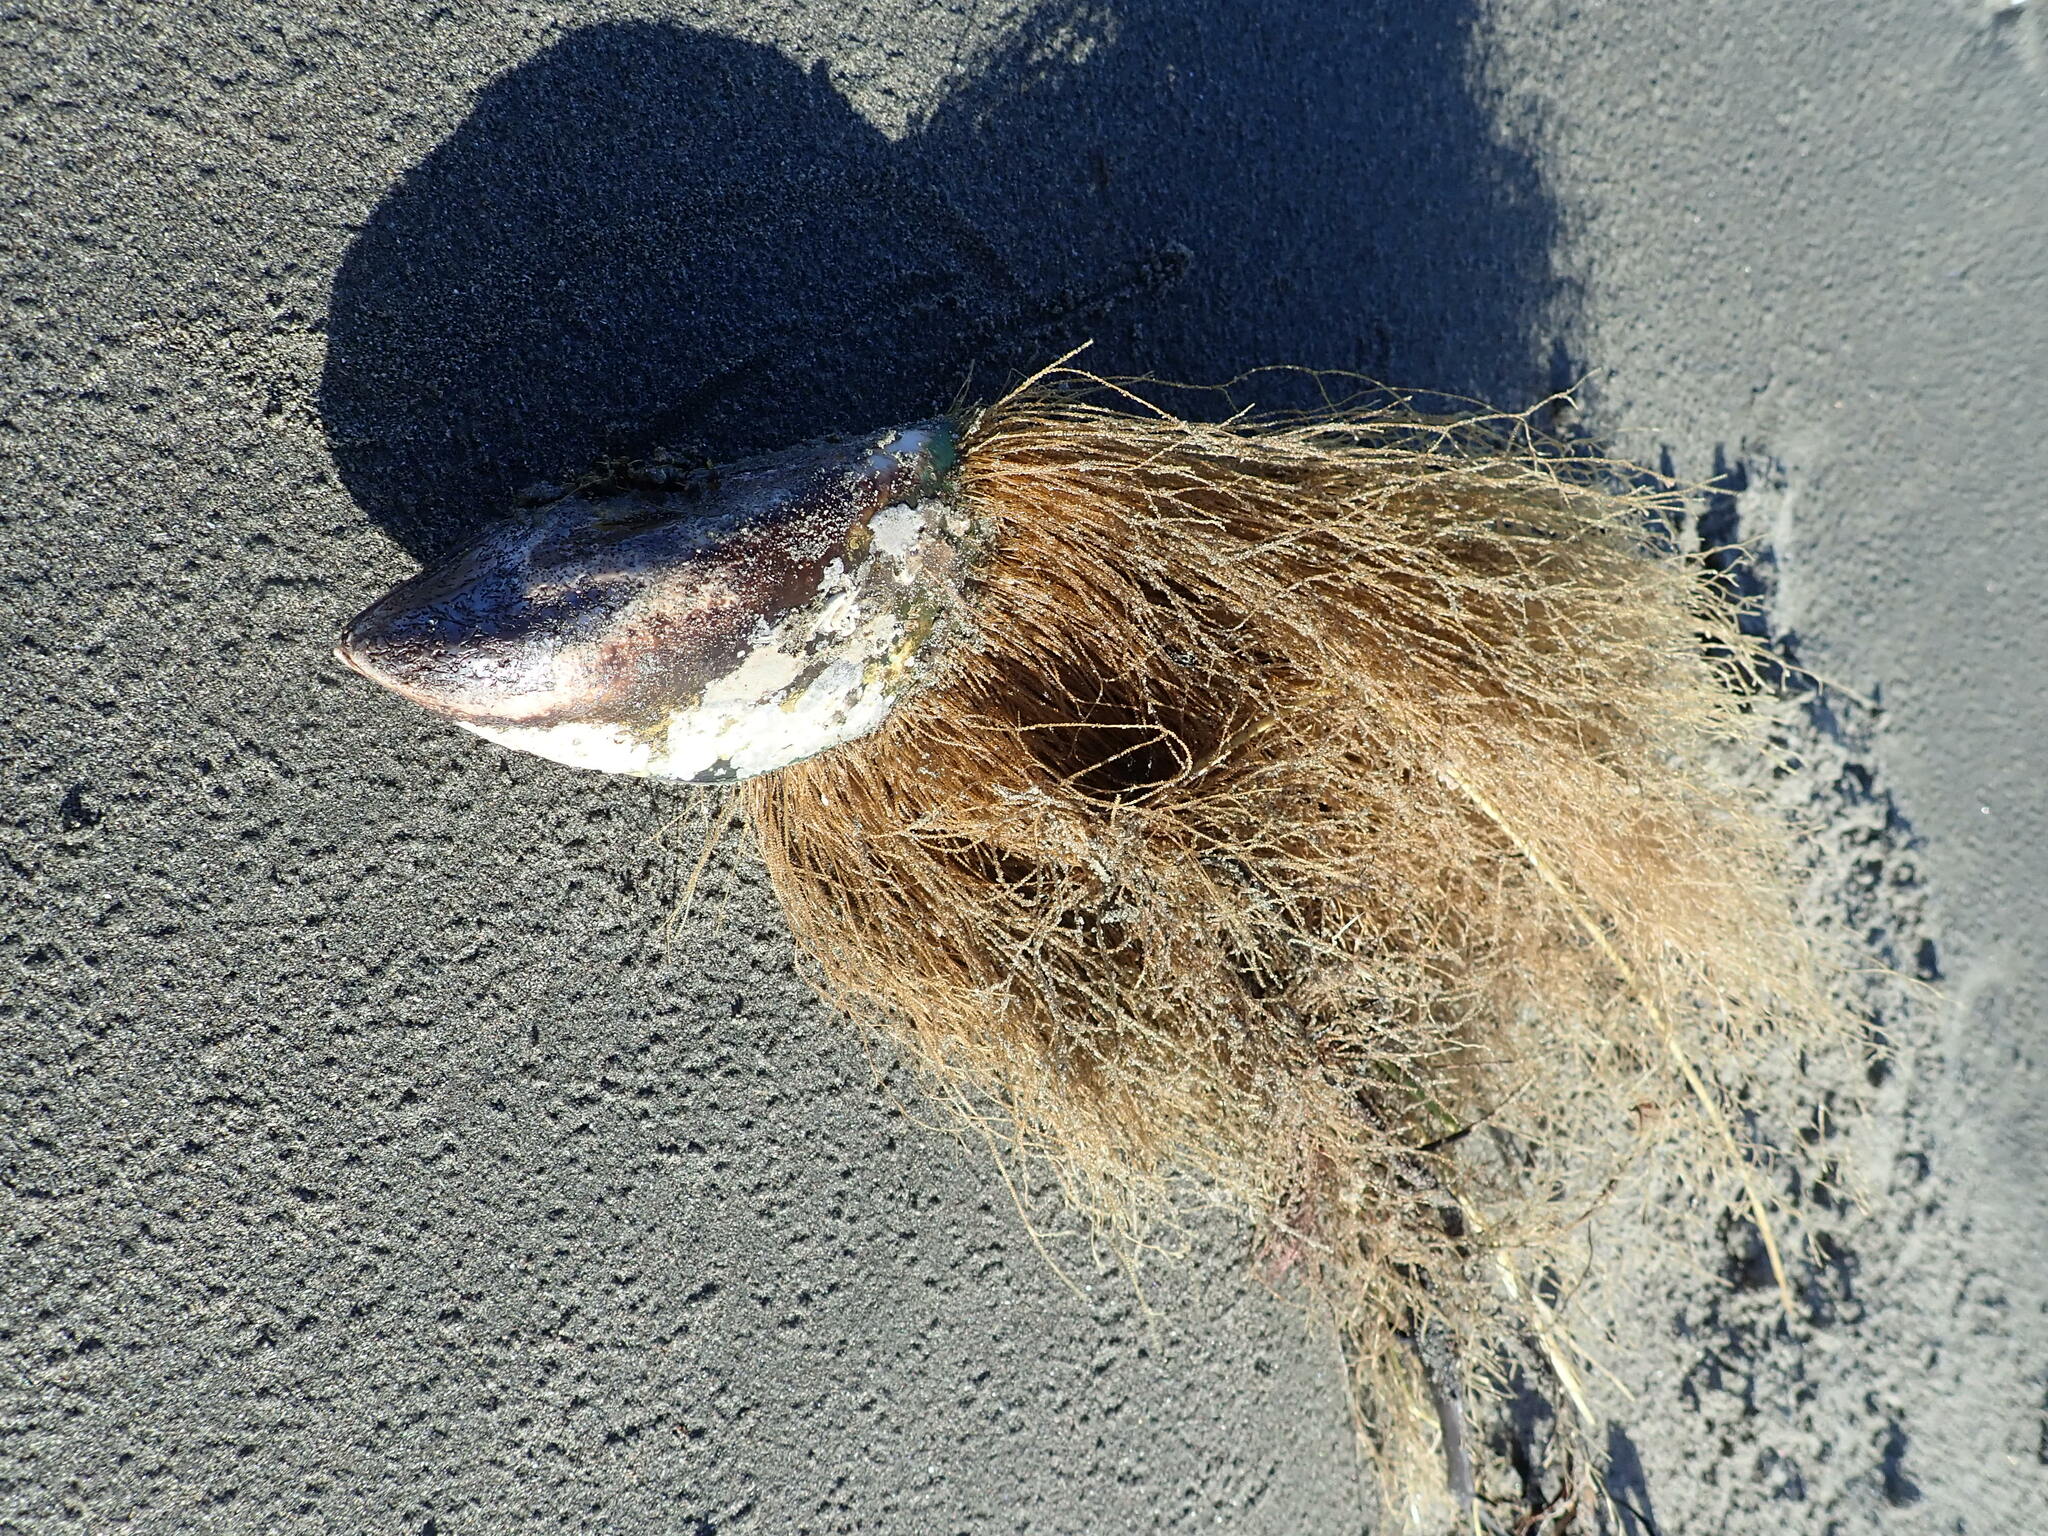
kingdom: Animalia
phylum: Mollusca
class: Bivalvia
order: Mytilida
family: Mytilidae
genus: Perna
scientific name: Perna canaliculus
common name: New zealand greenshelltm
